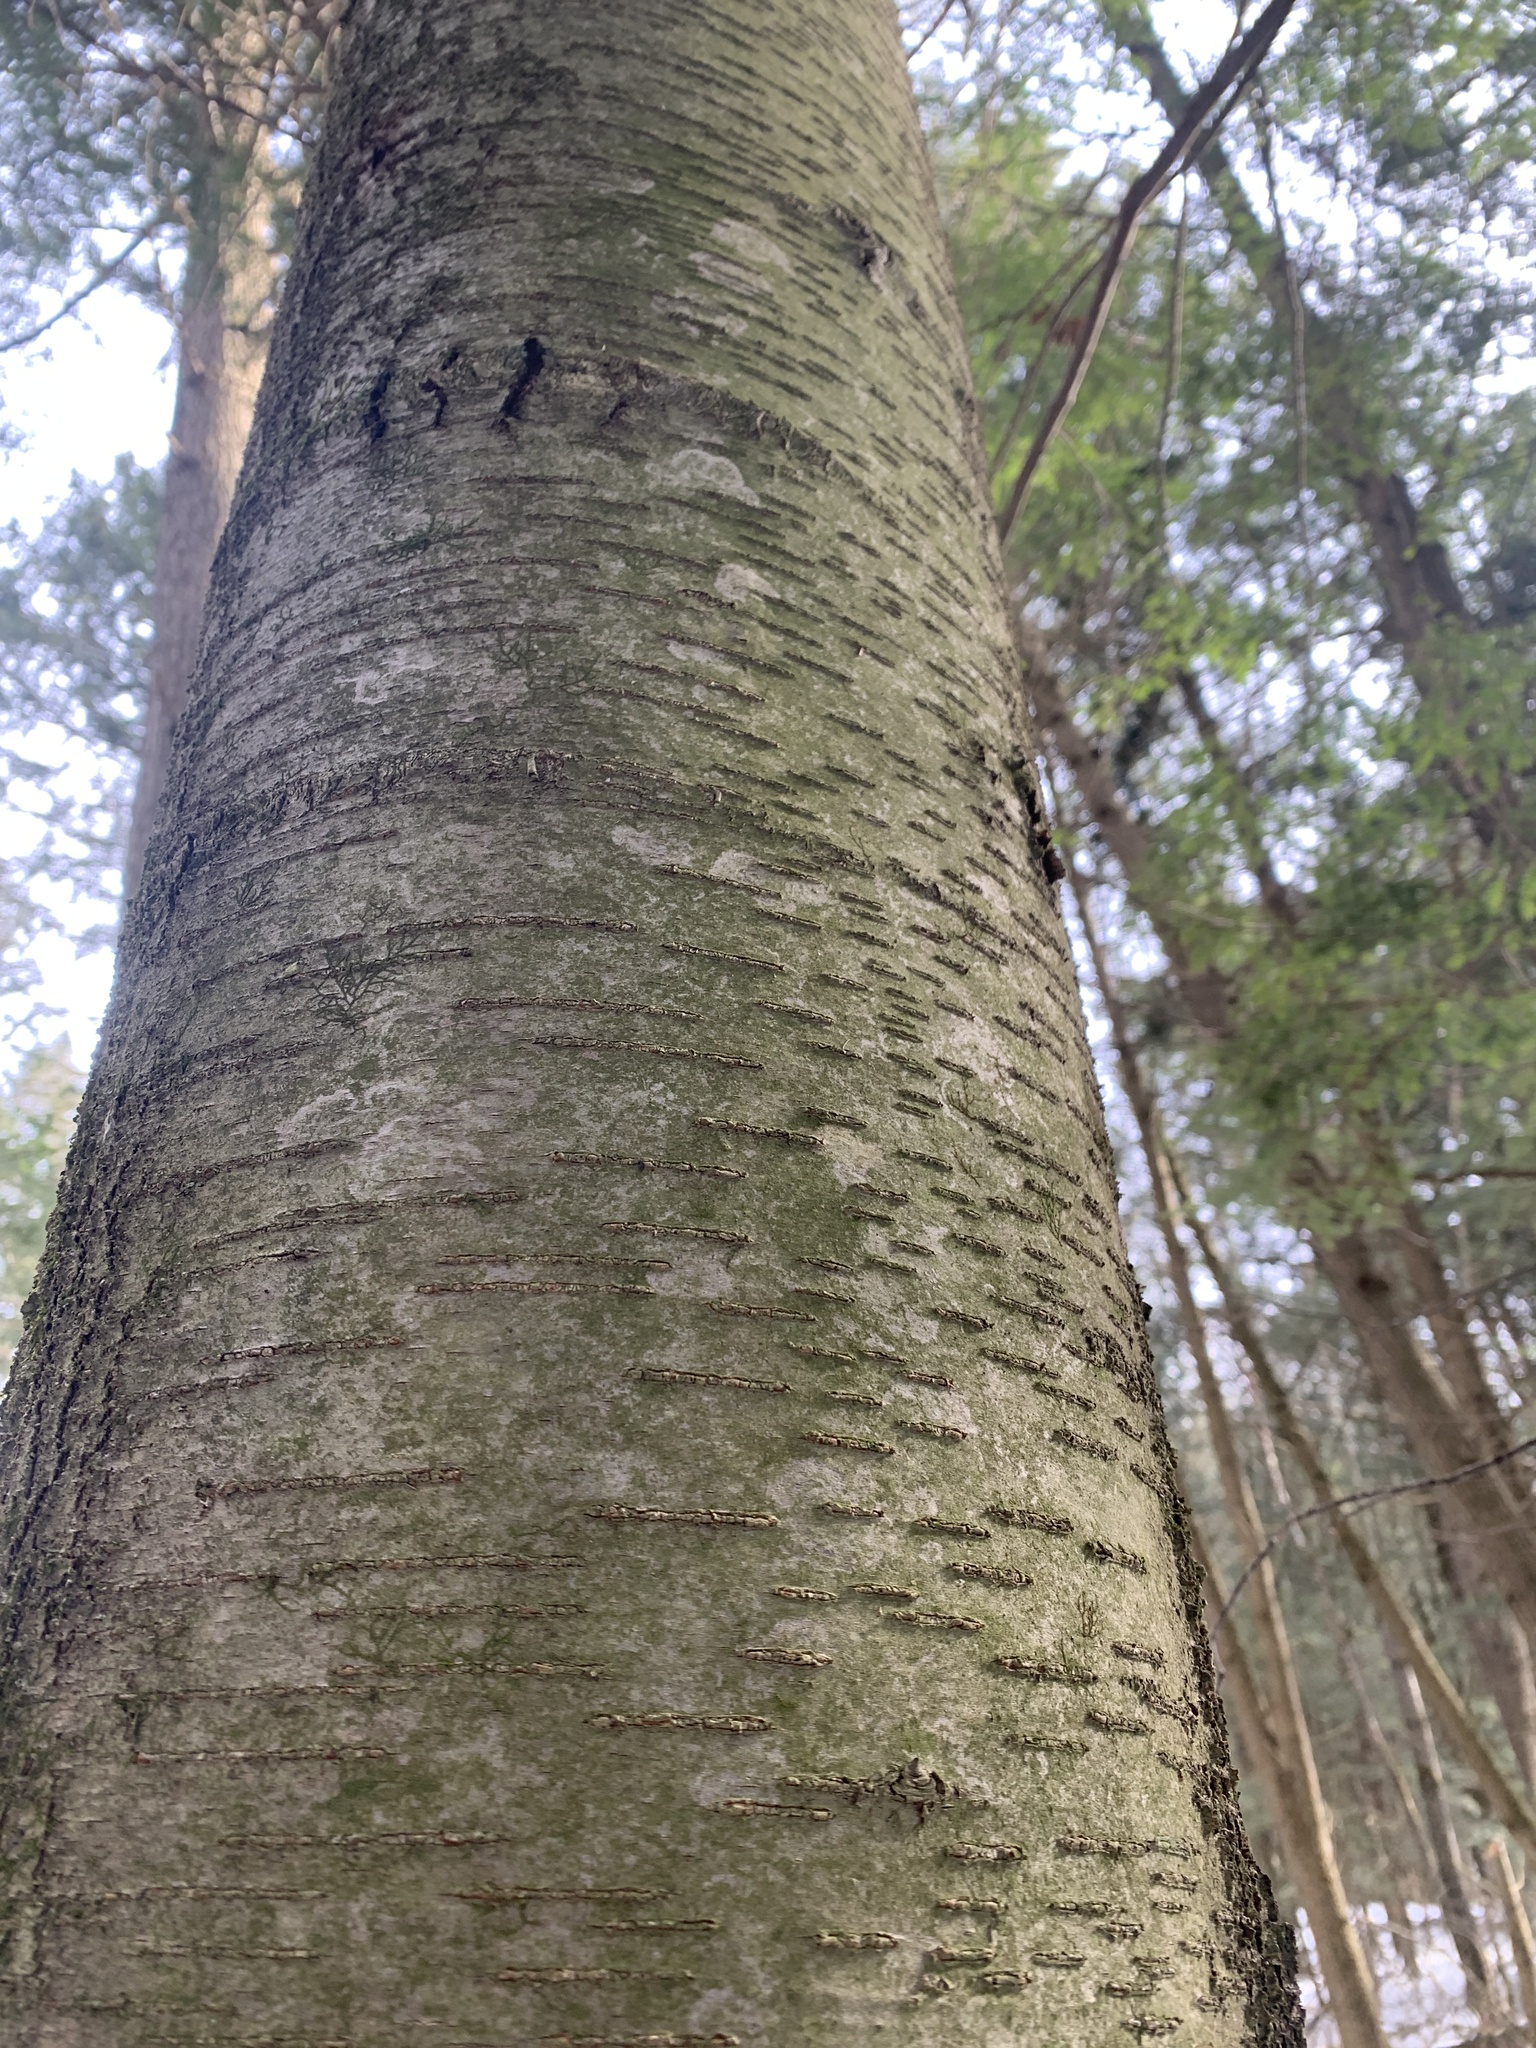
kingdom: Plantae
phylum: Tracheophyta
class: Magnoliopsida
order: Fagales
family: Betulaceae
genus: Betula
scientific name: Betula lenta
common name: Black birch
